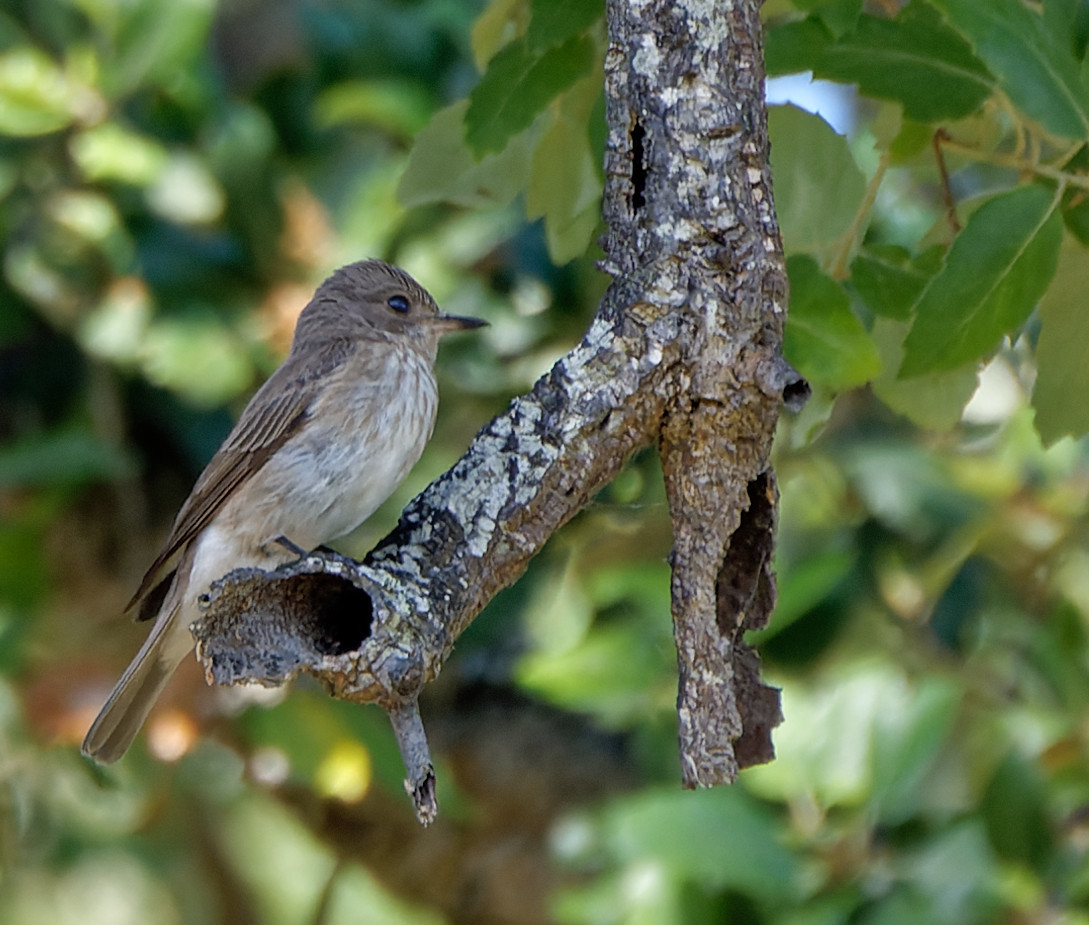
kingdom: Animalia
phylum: Chordata
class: Aves
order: Passeriformes
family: Muscicapidae
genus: Muscicapa
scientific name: Muscicapa striata
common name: Spotted flycatcher
